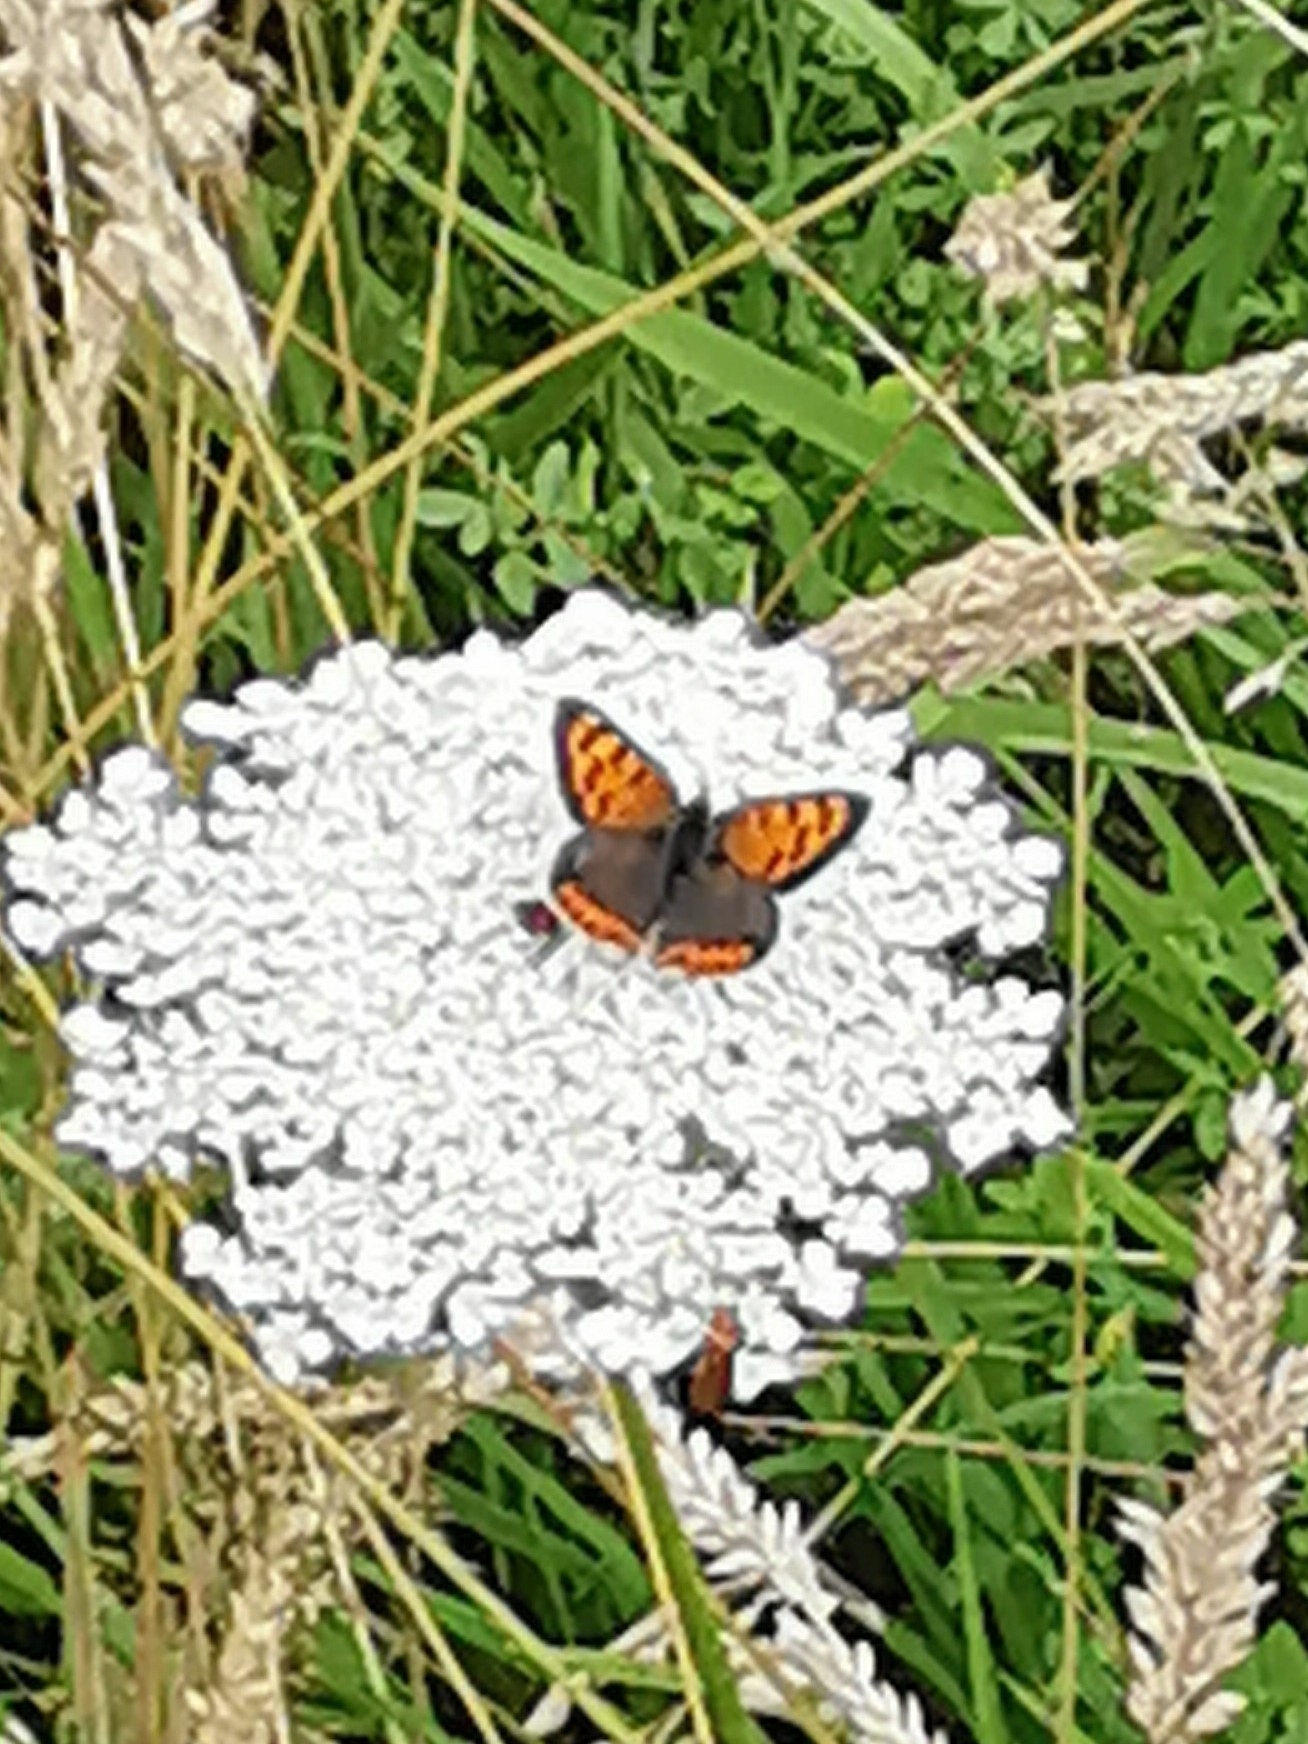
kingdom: Animalia
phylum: Arthropoda
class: Insecta
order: Lepidoptera
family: Lycaenidae
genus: Lycaena
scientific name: Lycaena phlaeas
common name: Small copper
